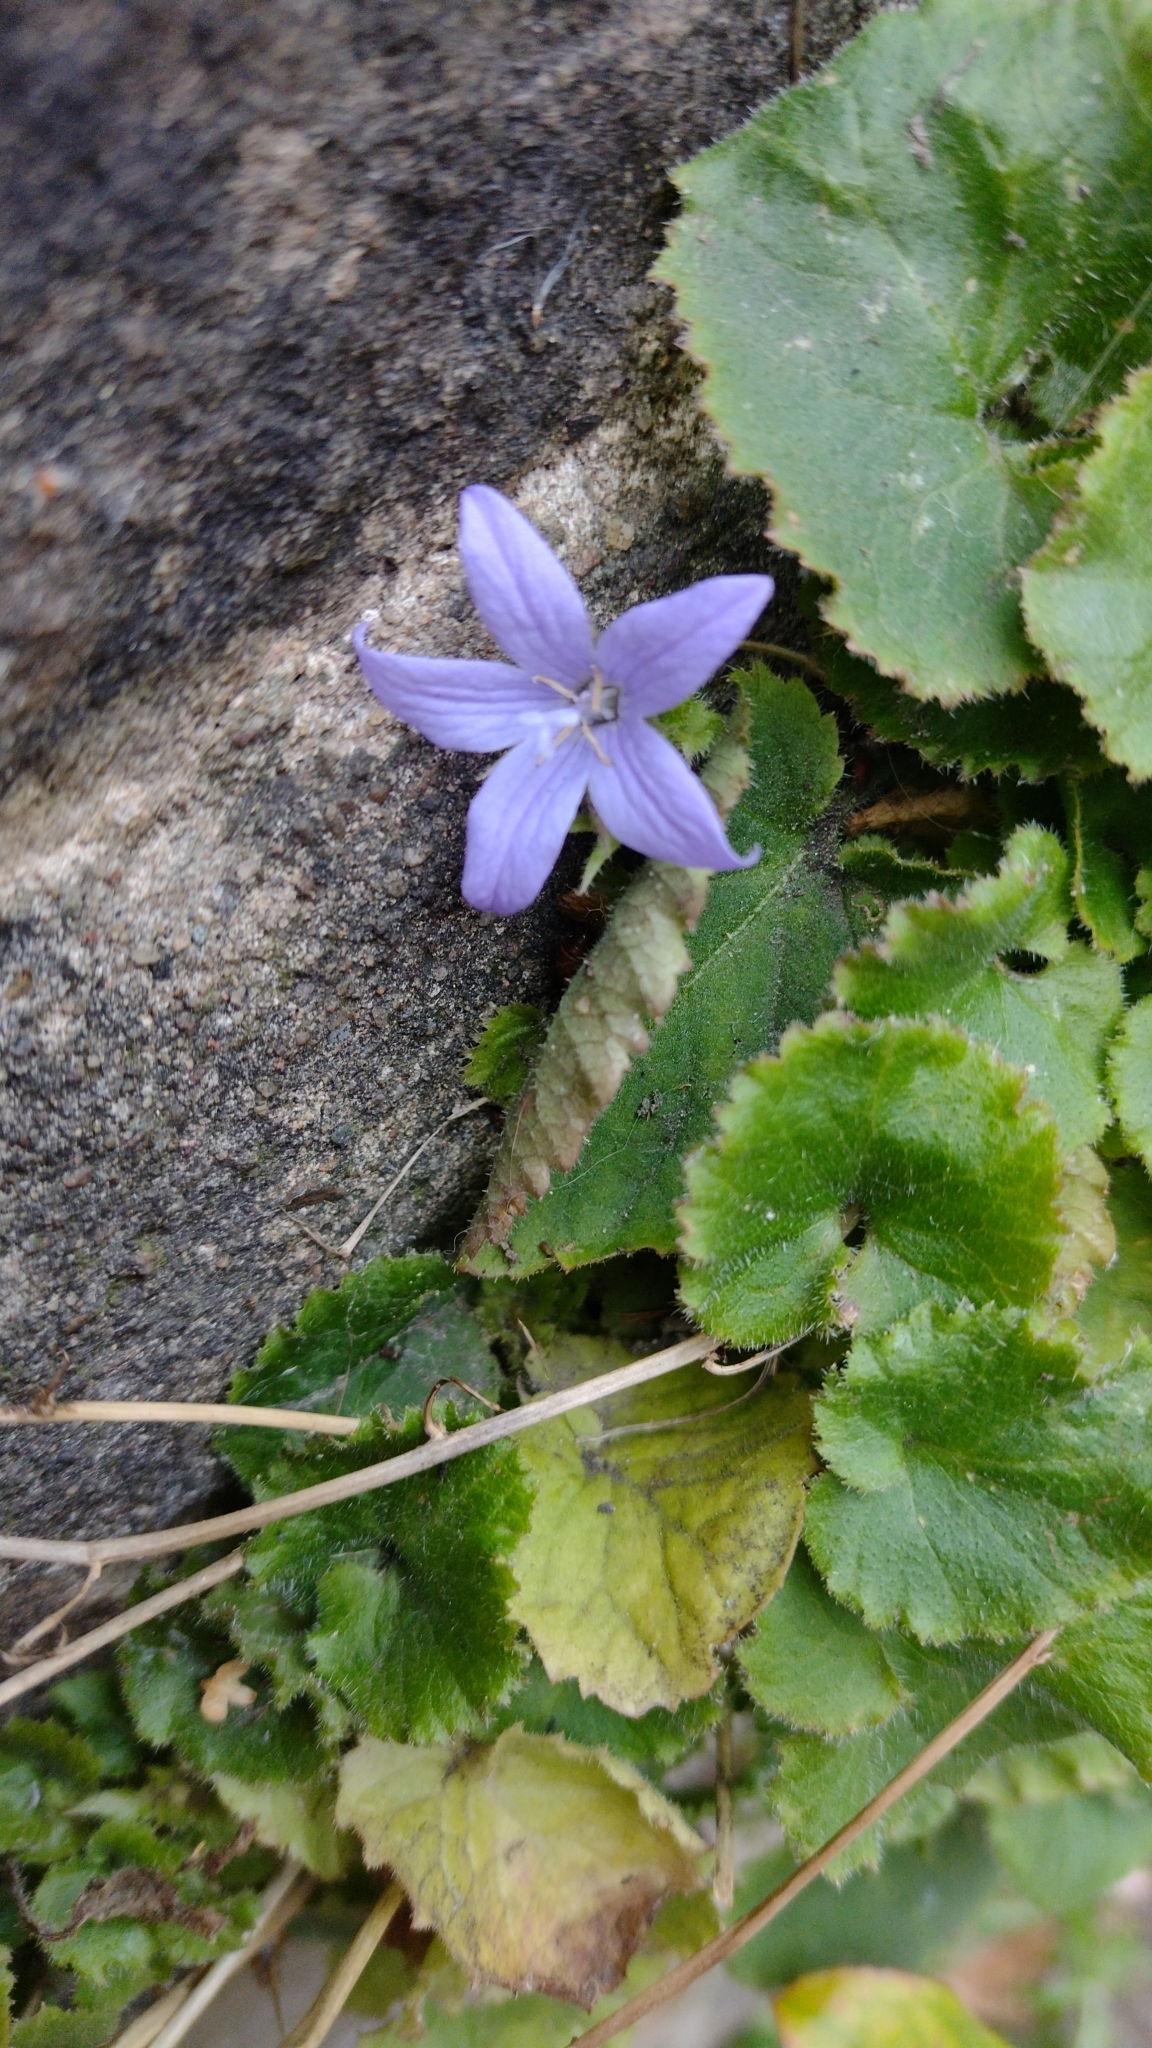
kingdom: Plantae
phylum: Tracheophyta
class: Magnoliopsida
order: Asterales
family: Campanulaceae
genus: Campanula
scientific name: Campanula poscharskyana
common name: Trailing bellflower
